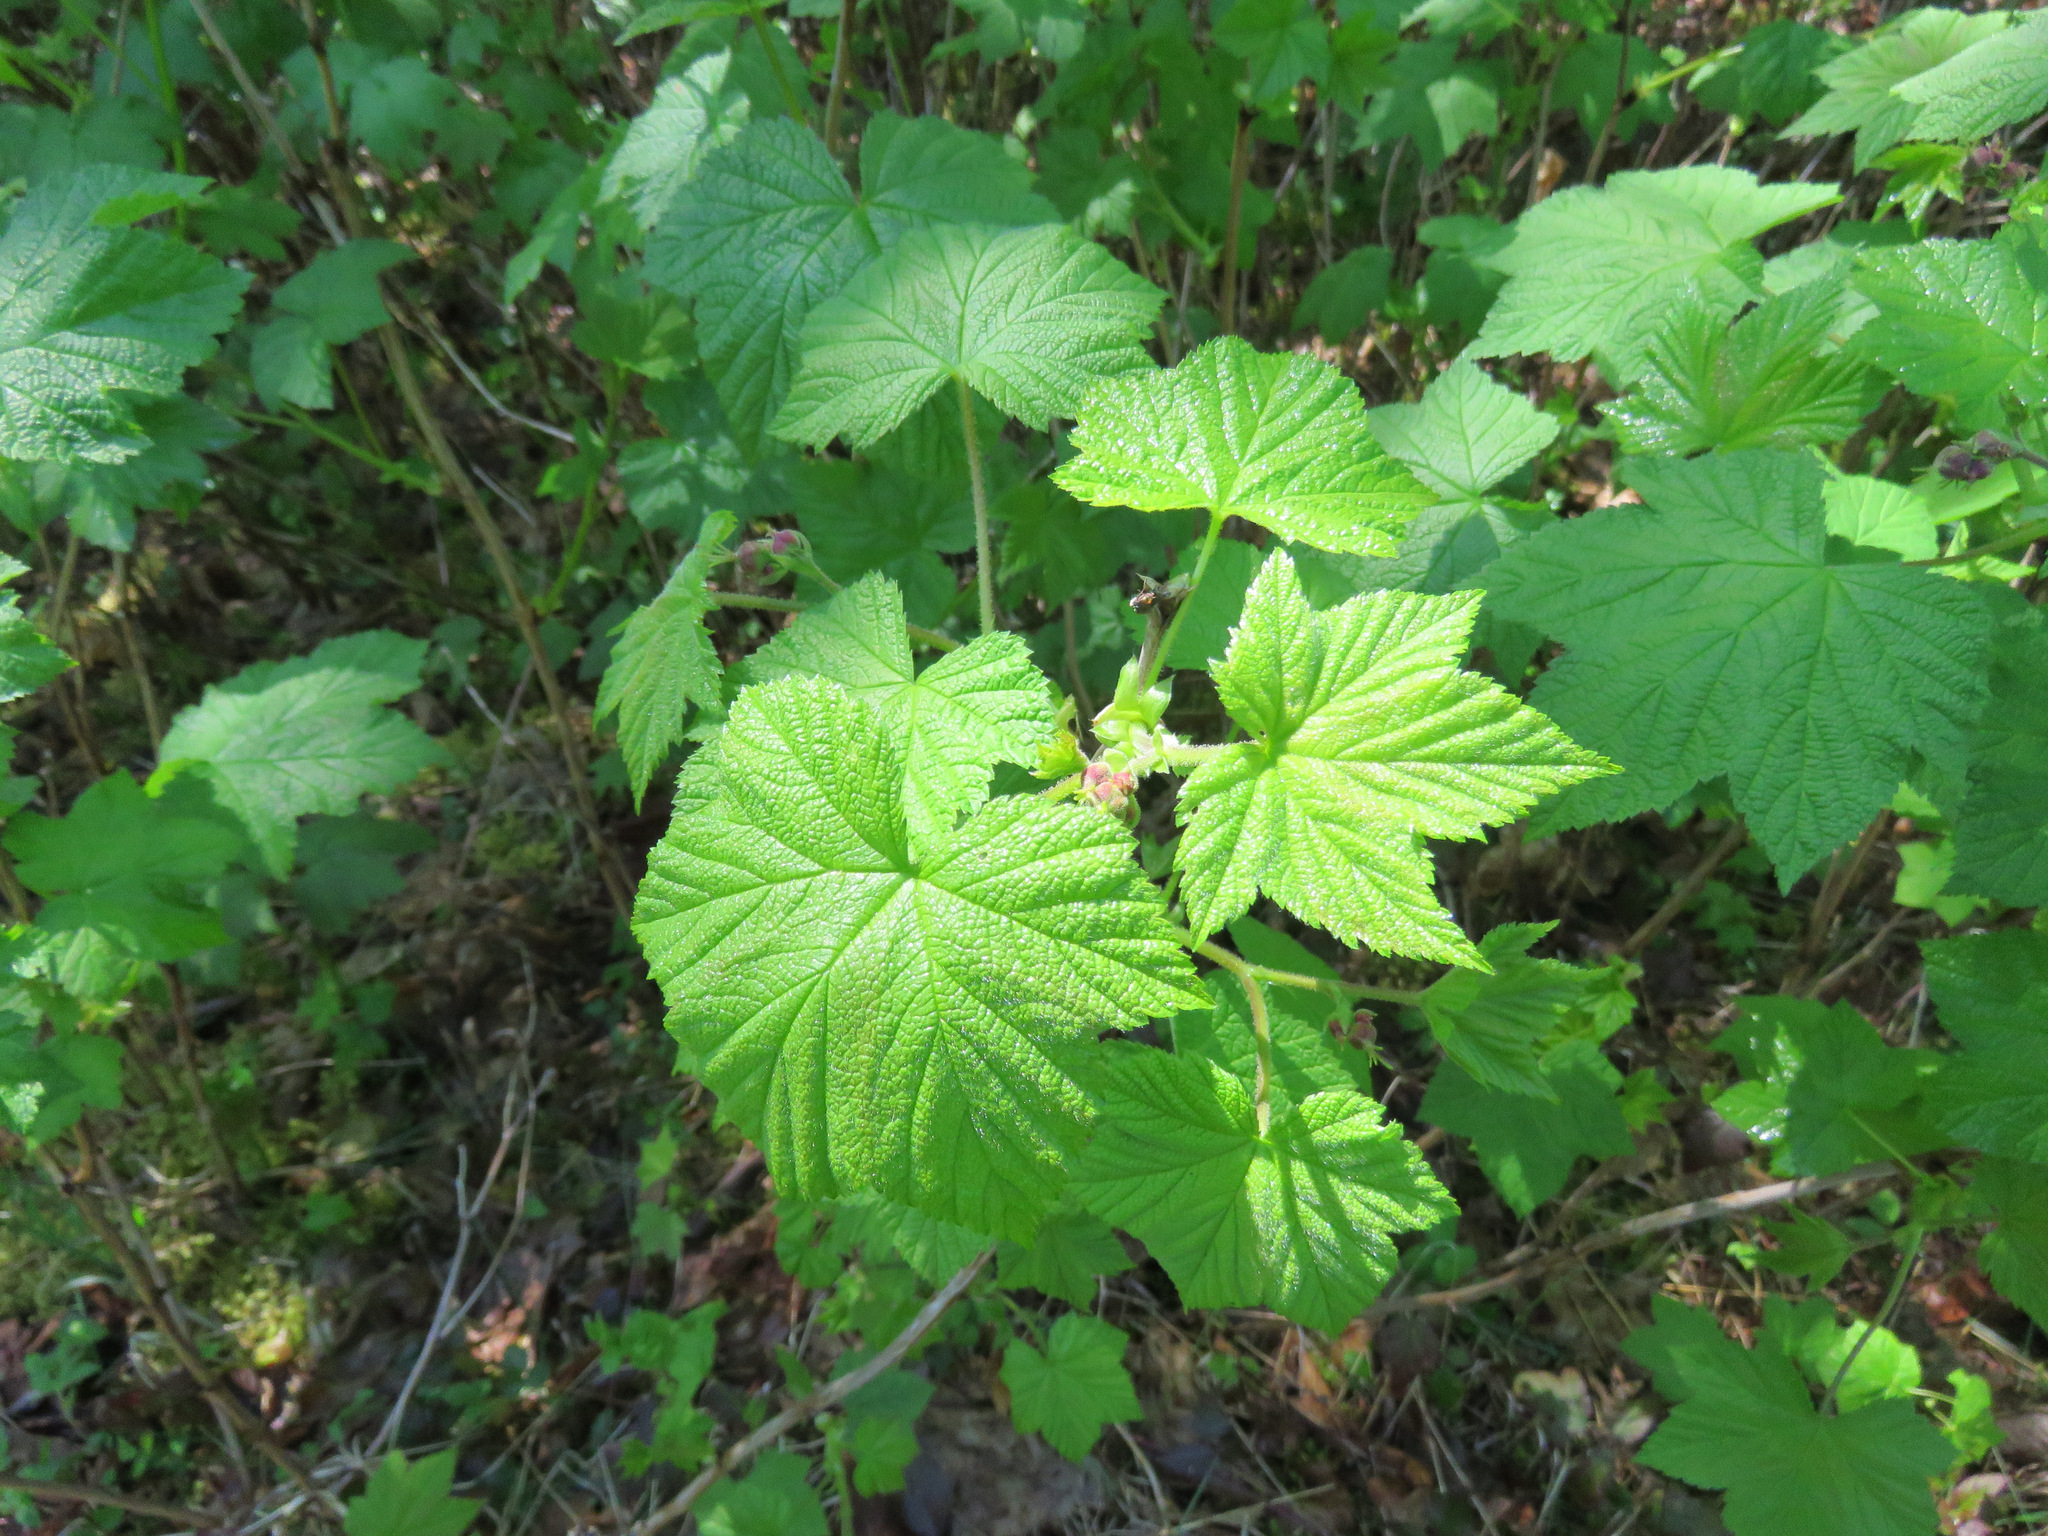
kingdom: Plantae
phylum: Tracheophyta
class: Magnoliopsida
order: Rosales
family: Rosaceae
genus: Rubus
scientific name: Rubus parviflorus
